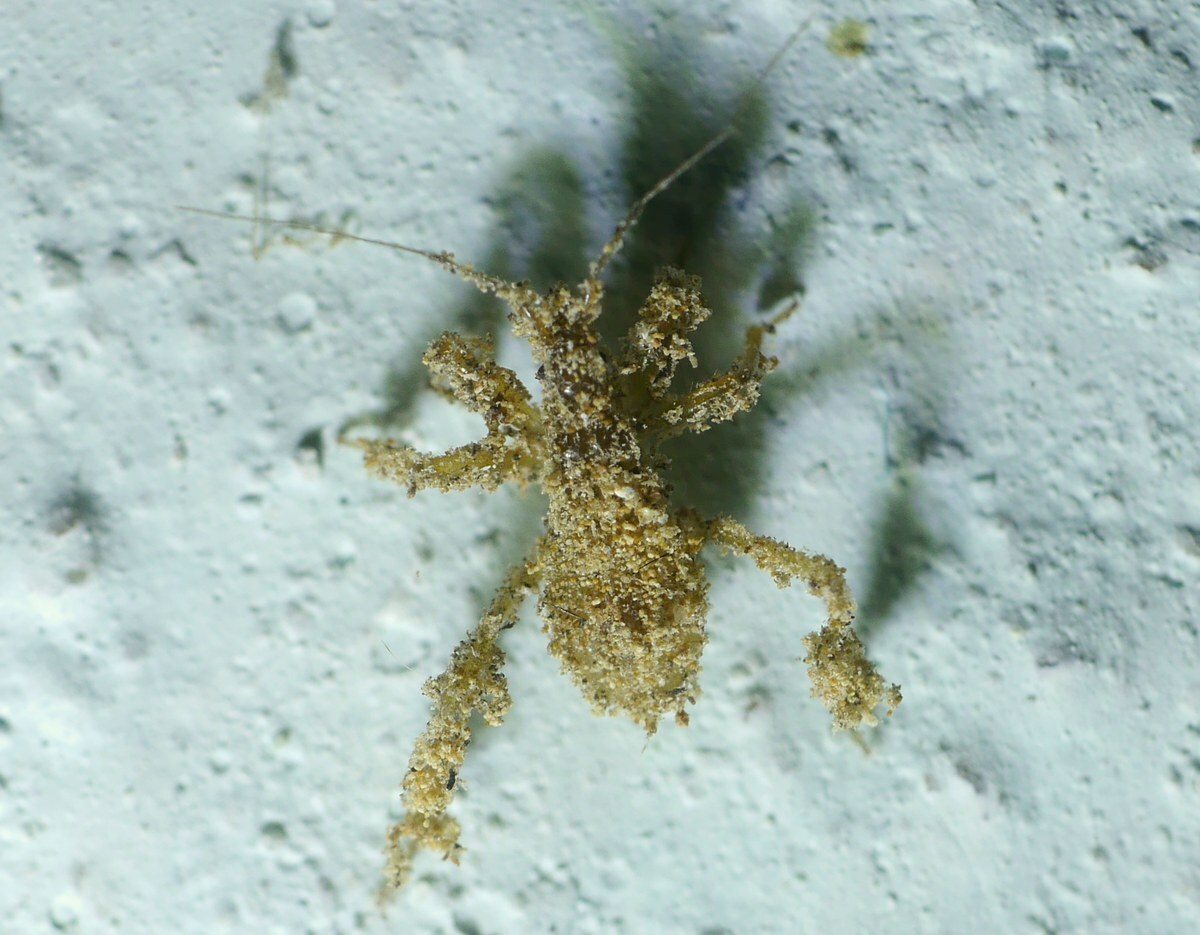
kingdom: Animalia
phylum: Arthropoda
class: Insecta
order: Hemiptera
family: Reduviidae
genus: Reduvius
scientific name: Reduvius personatus
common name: Masked hunter
